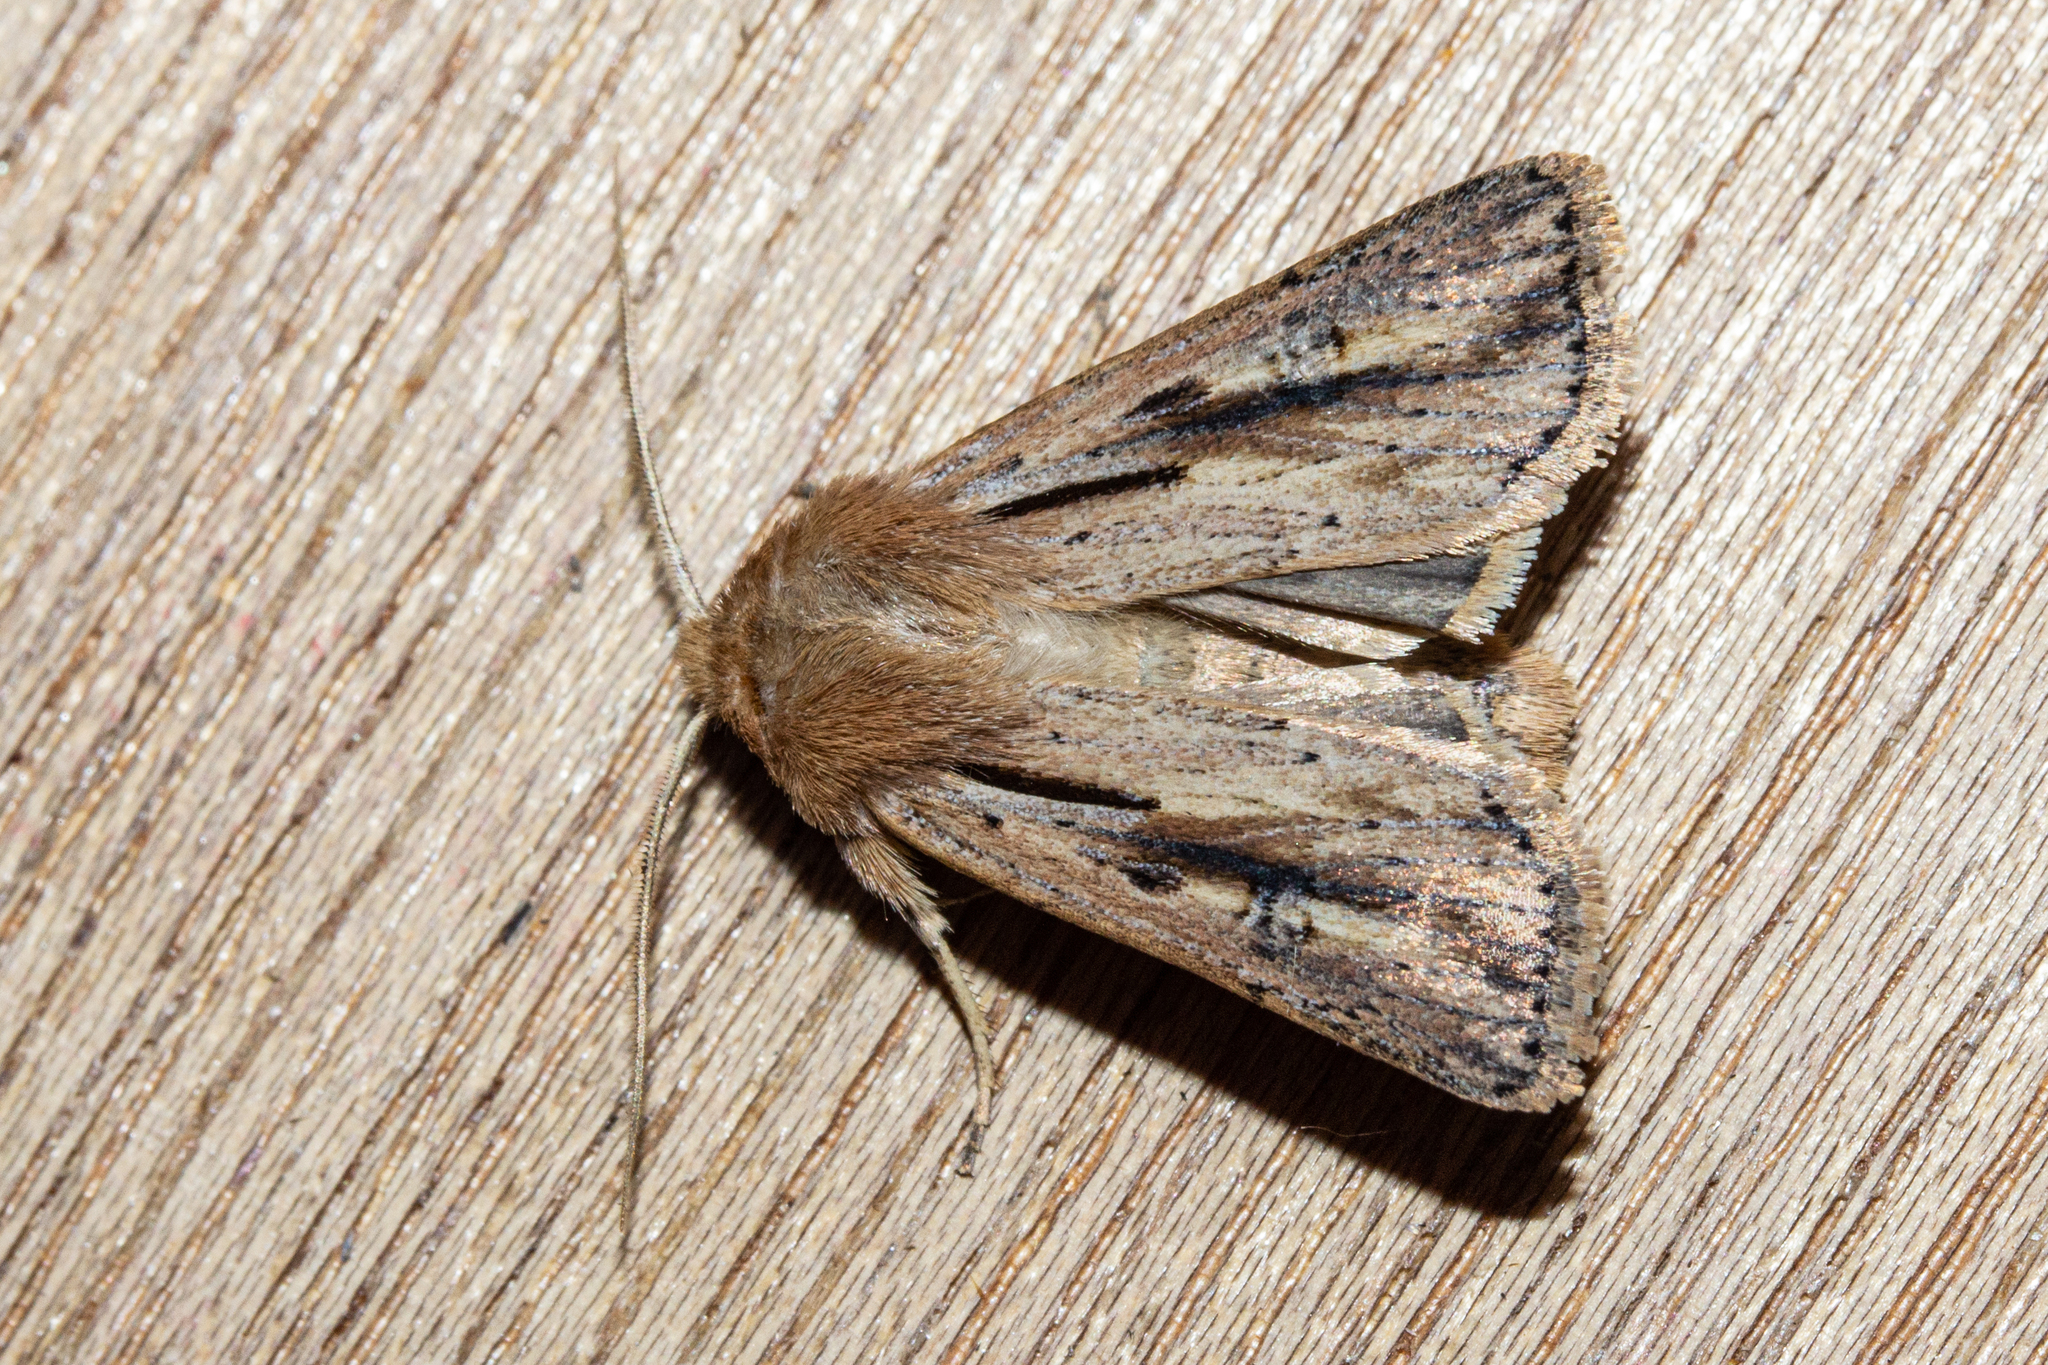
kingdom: Animalia
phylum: Arthropoda
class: Insecta
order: Lepidoptera
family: Noctuidae
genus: Ichneutica
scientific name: Ichneutica propria
